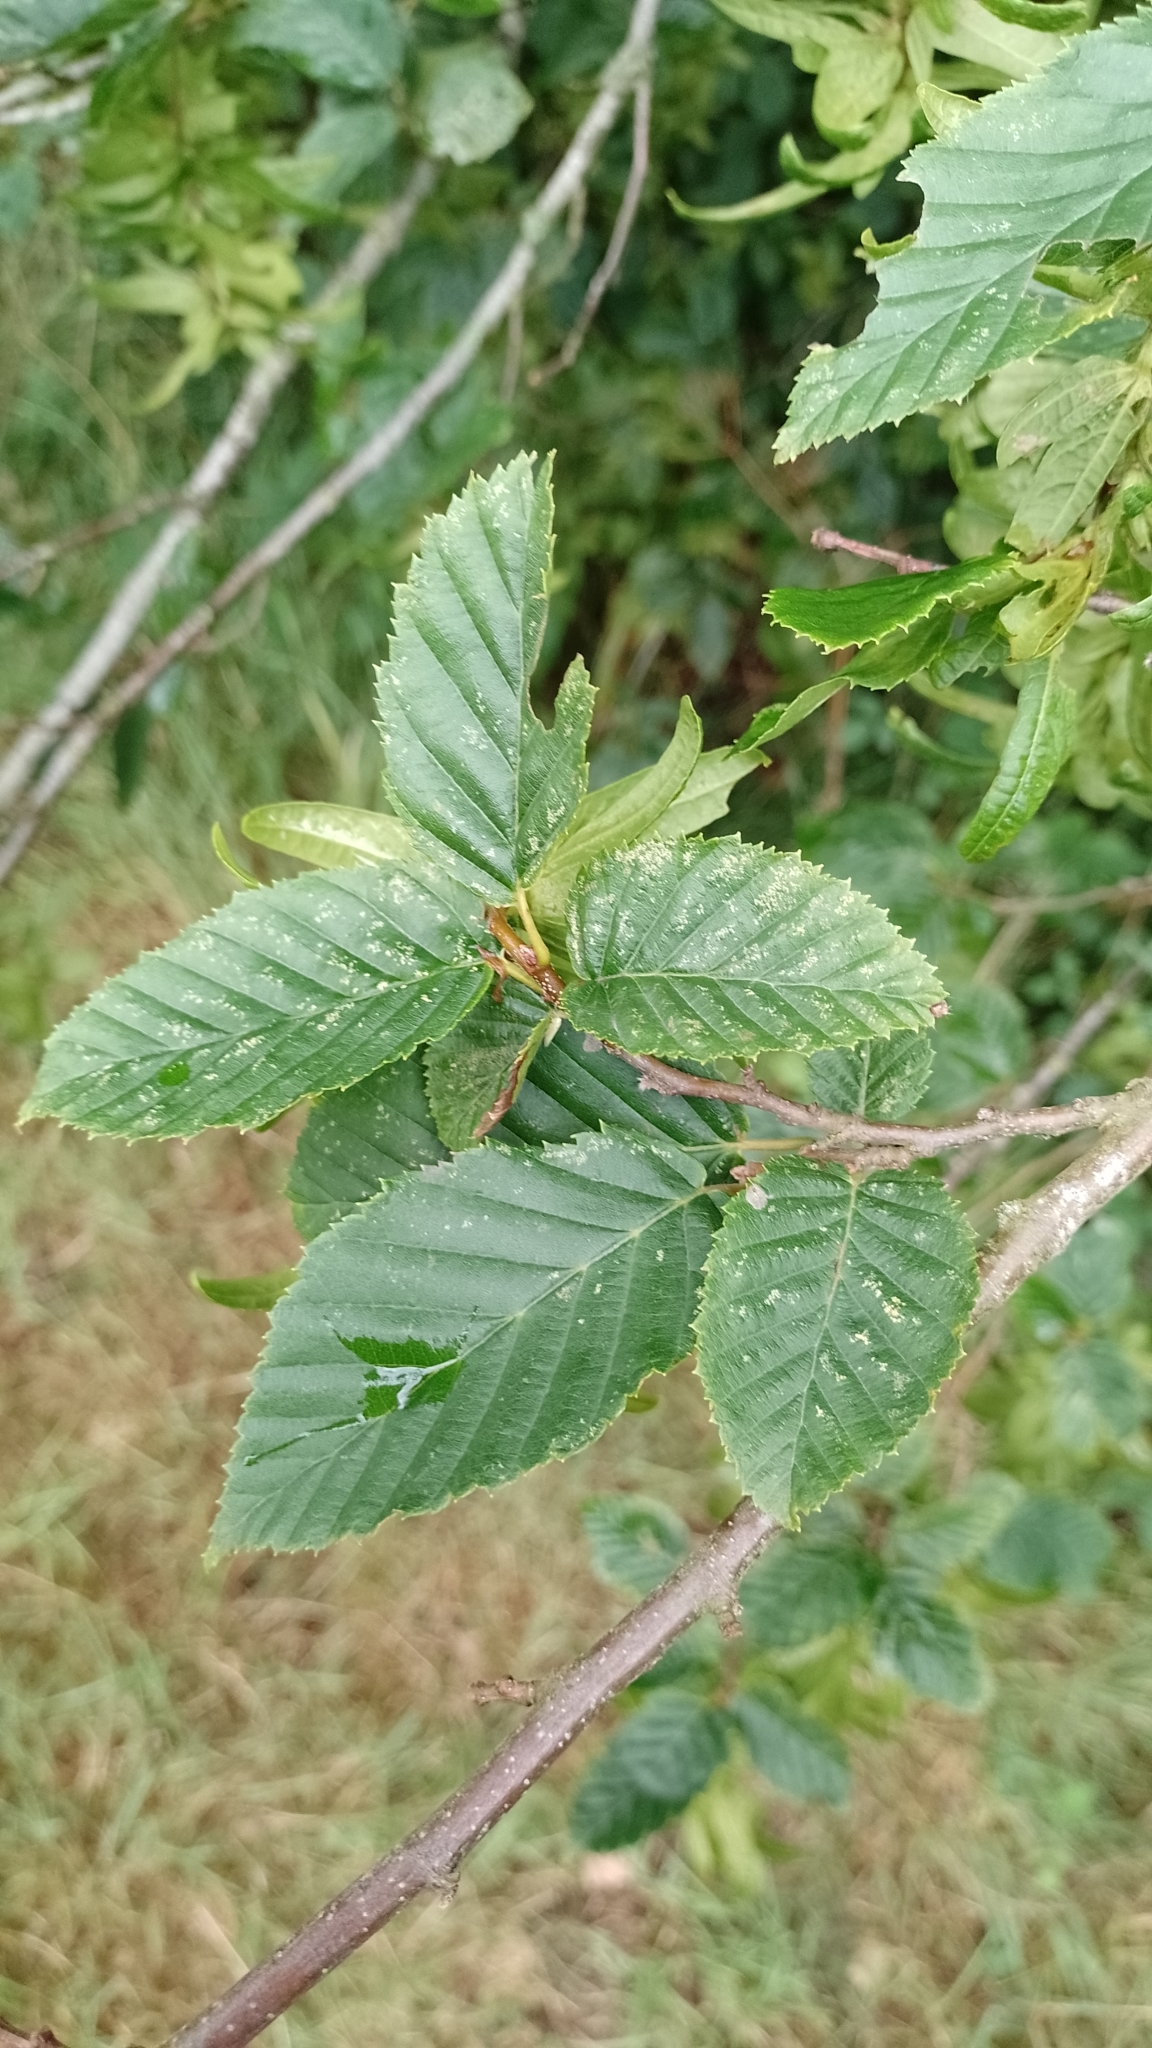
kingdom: Plantae
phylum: Tracheophyta
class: Magnoliopsida
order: Fagales
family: Betulaceae
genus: Carpinus
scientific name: Carpinus betulus
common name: Hornbeam
